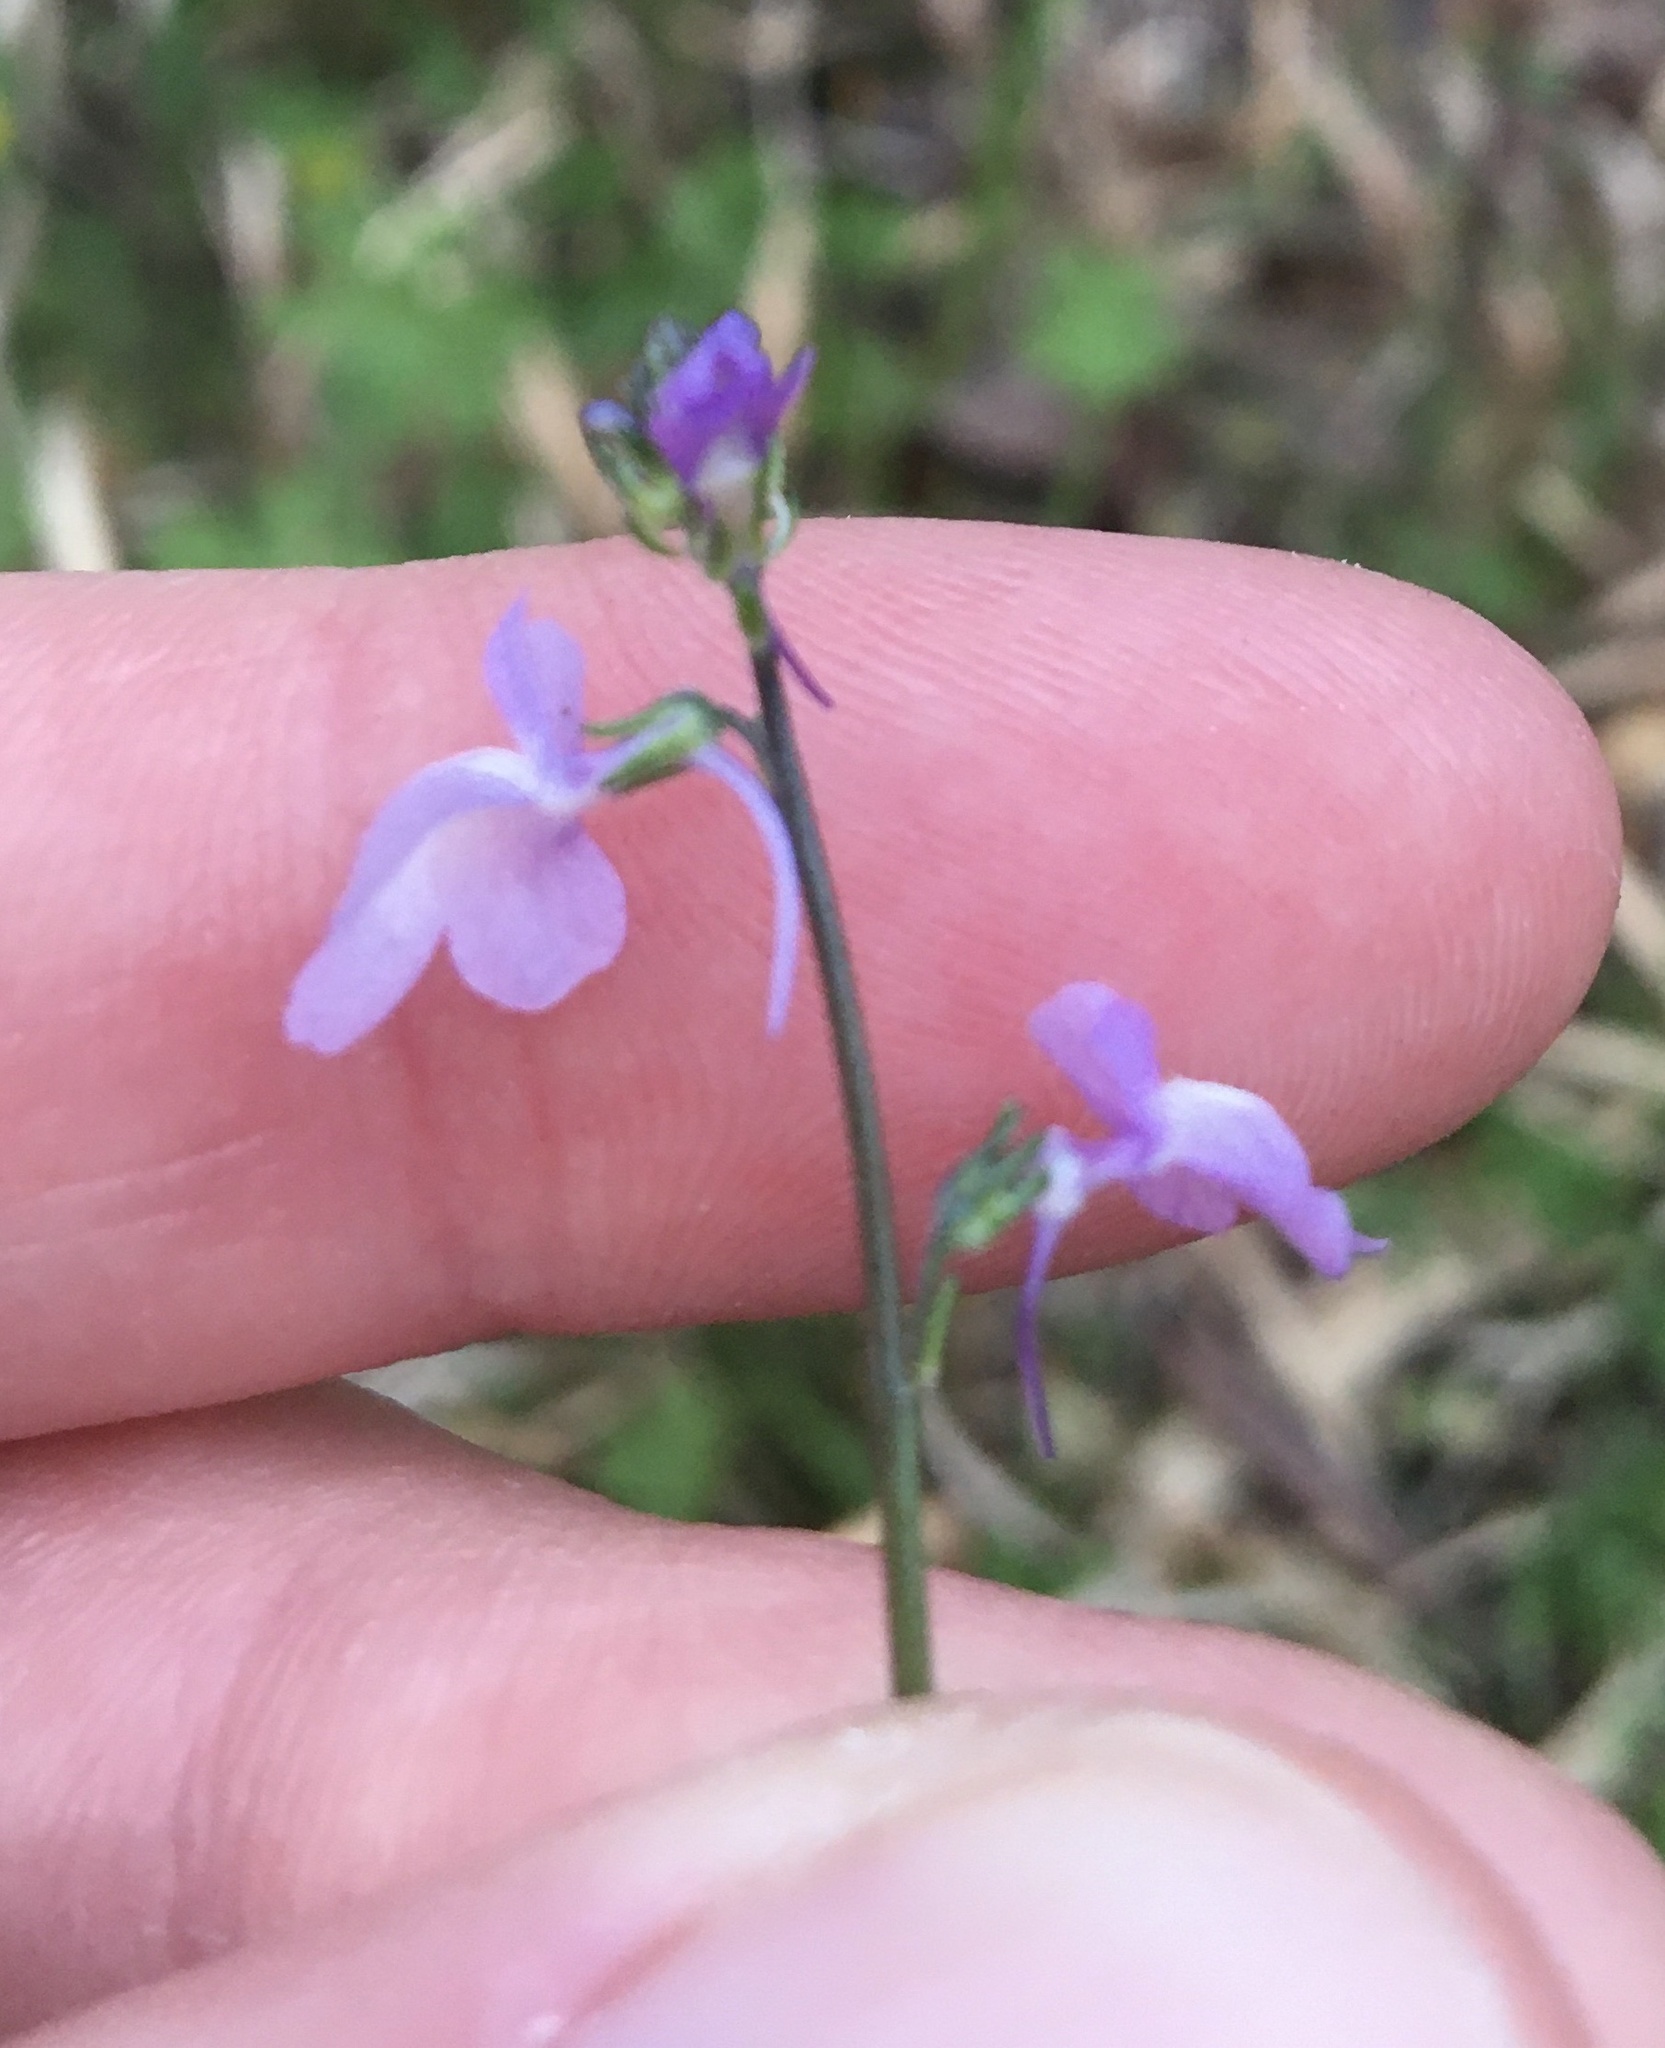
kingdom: Plantae
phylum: Tracheophyta
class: Magnoliopsida
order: Lamiales
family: Plantaginaceae
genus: Nuttallanthus
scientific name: Nuttallanthus canadensis
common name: Blue toadflax
